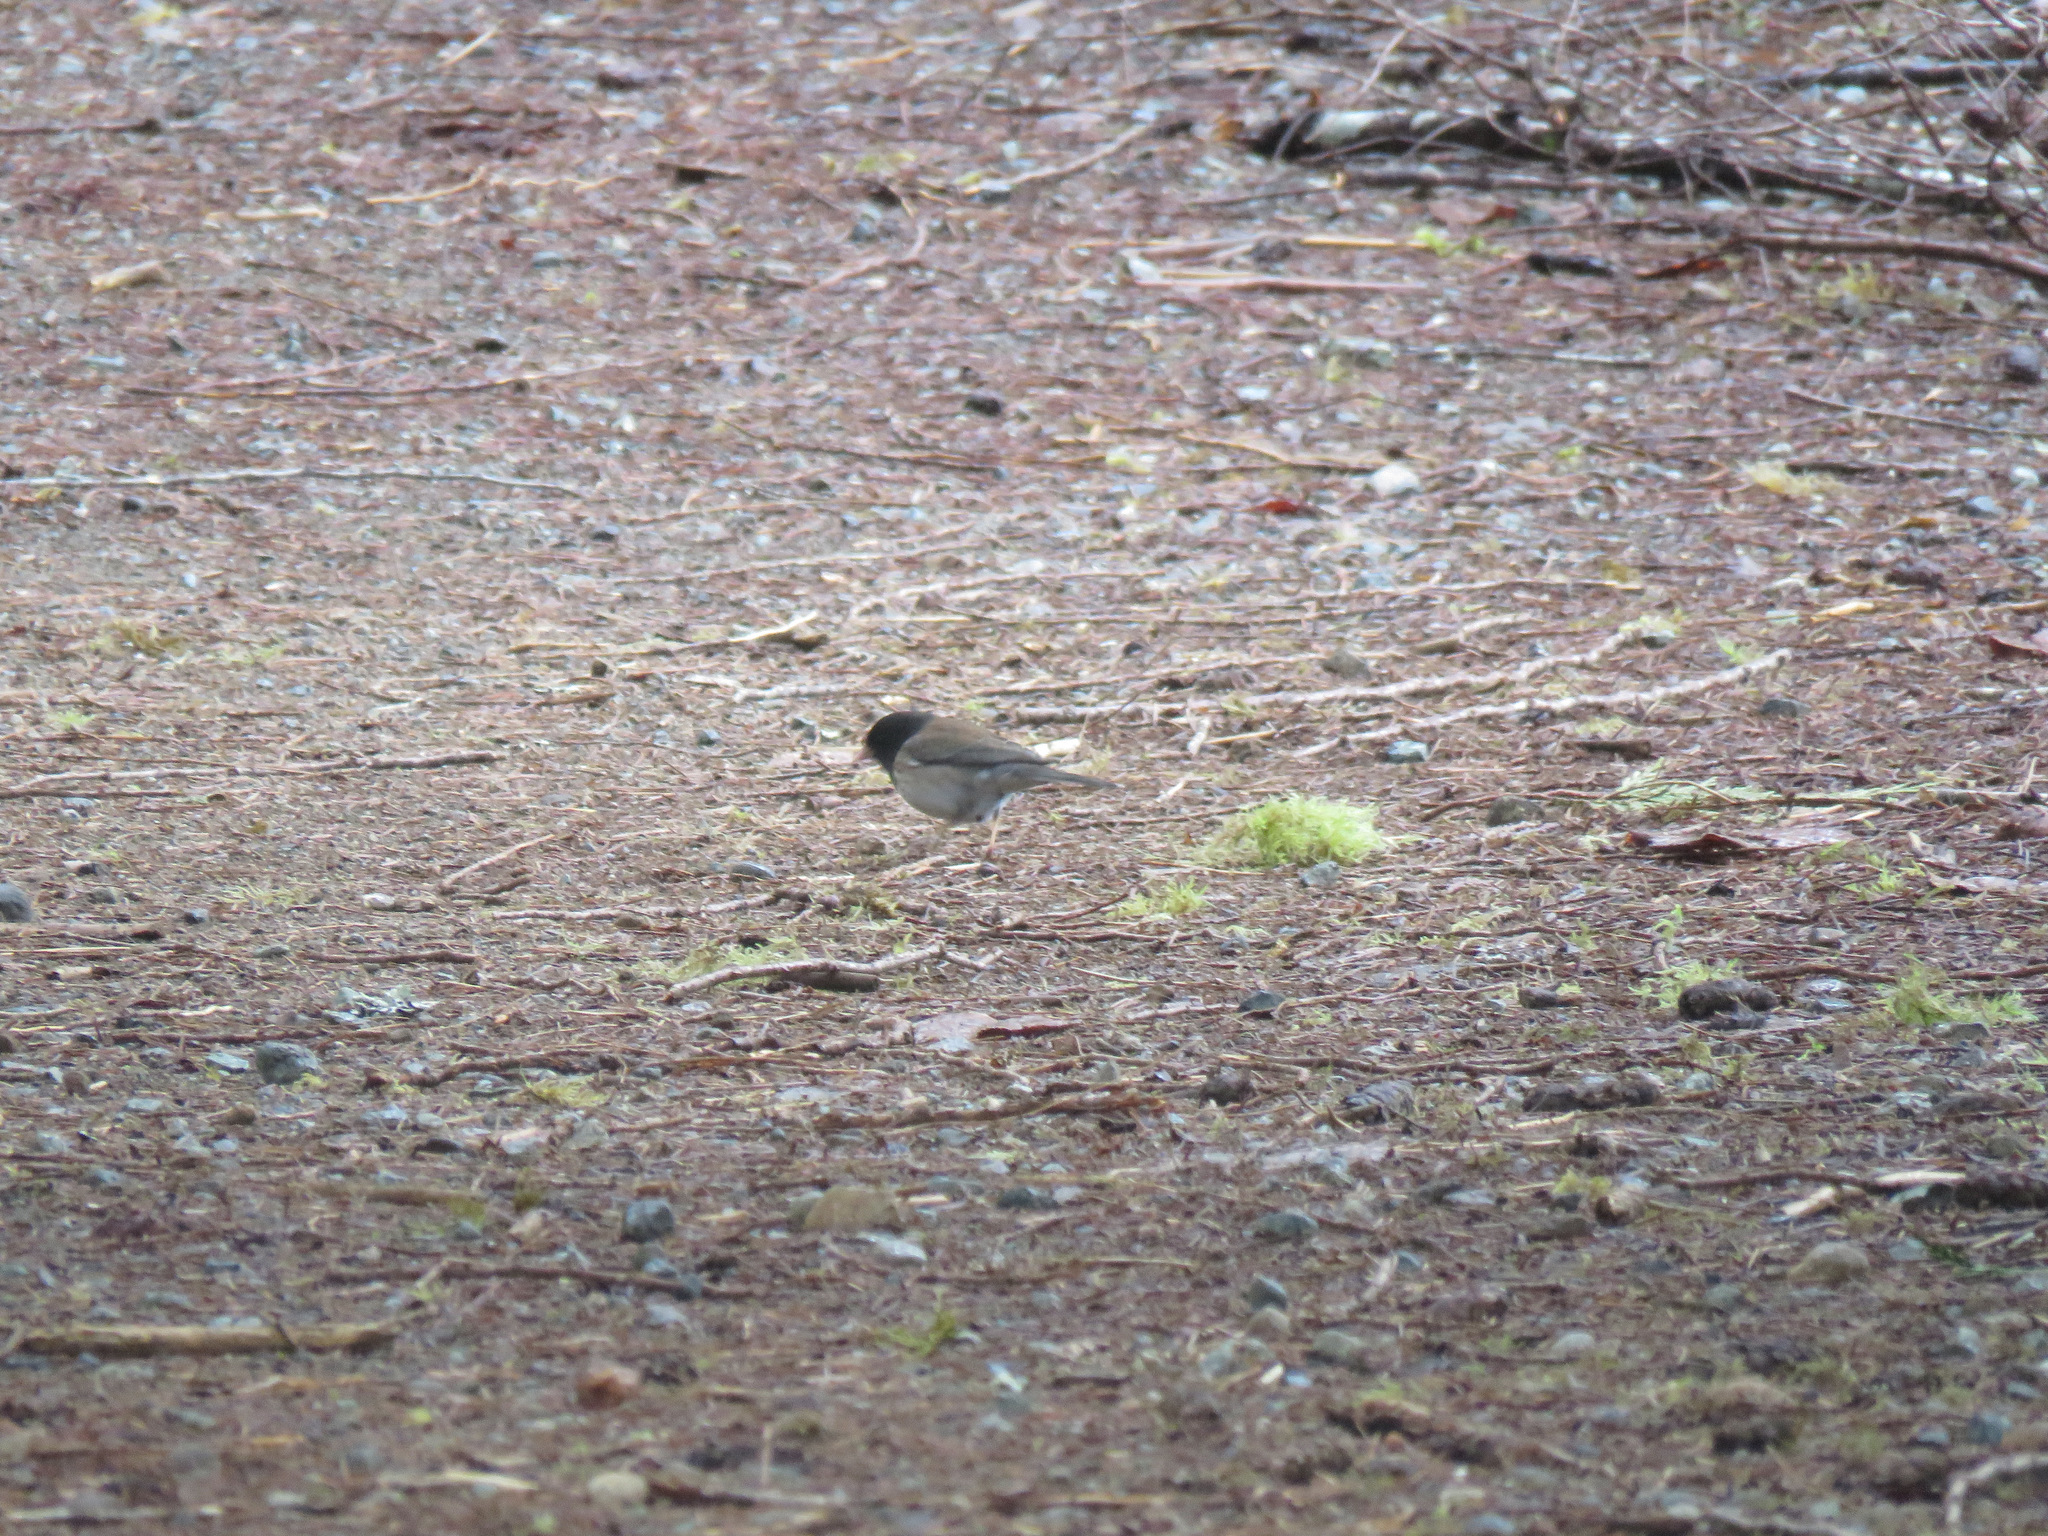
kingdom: Animalia
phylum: Chordata
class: Aves
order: Passeriformes
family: Passerellidae
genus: Junco
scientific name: Junco hyemalis
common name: Dark-eyed junco
